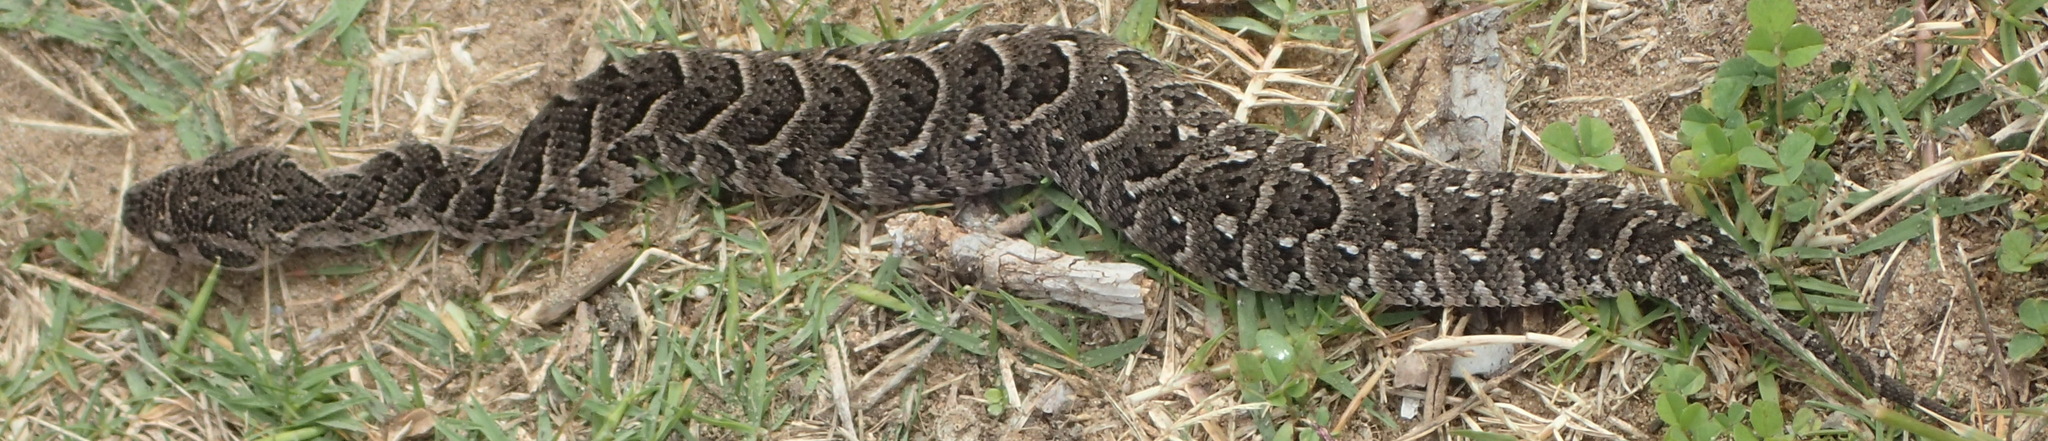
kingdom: Animalia
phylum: Chordata
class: Squamata
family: Viperidae
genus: Bitis
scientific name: Bitis arietans
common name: Puff adder
